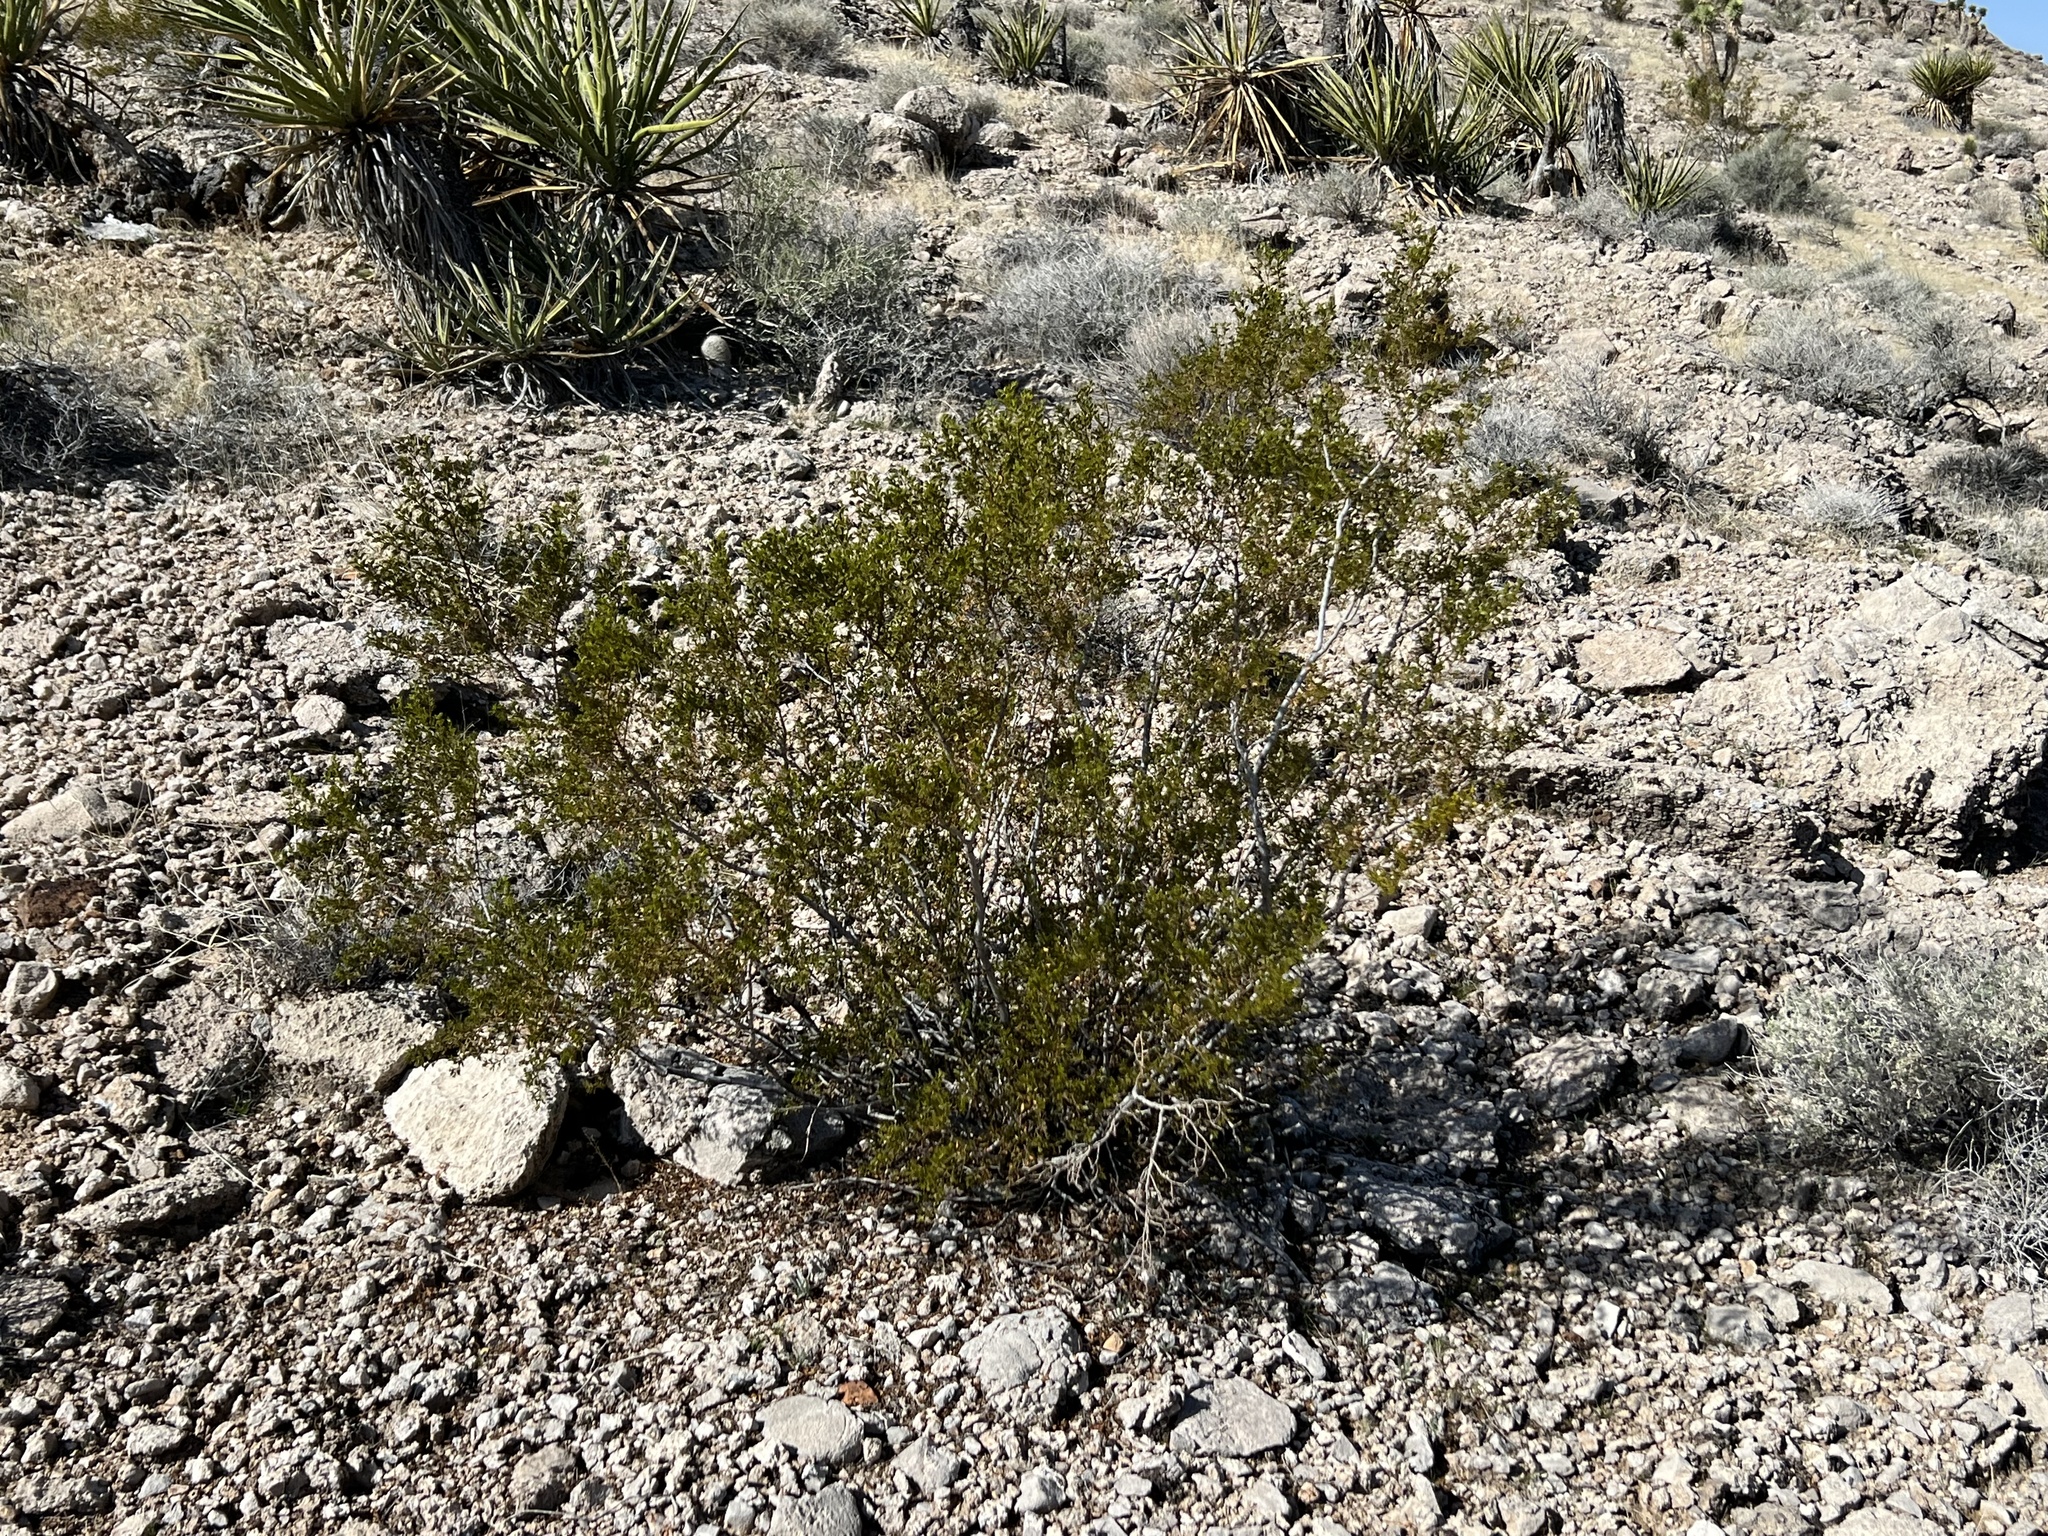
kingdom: Plantae
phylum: Tracheophyta
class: Magnoliopsida
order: Zygophyllales
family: Zygophyllaceae
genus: Larrea
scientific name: Larrea tridentata
